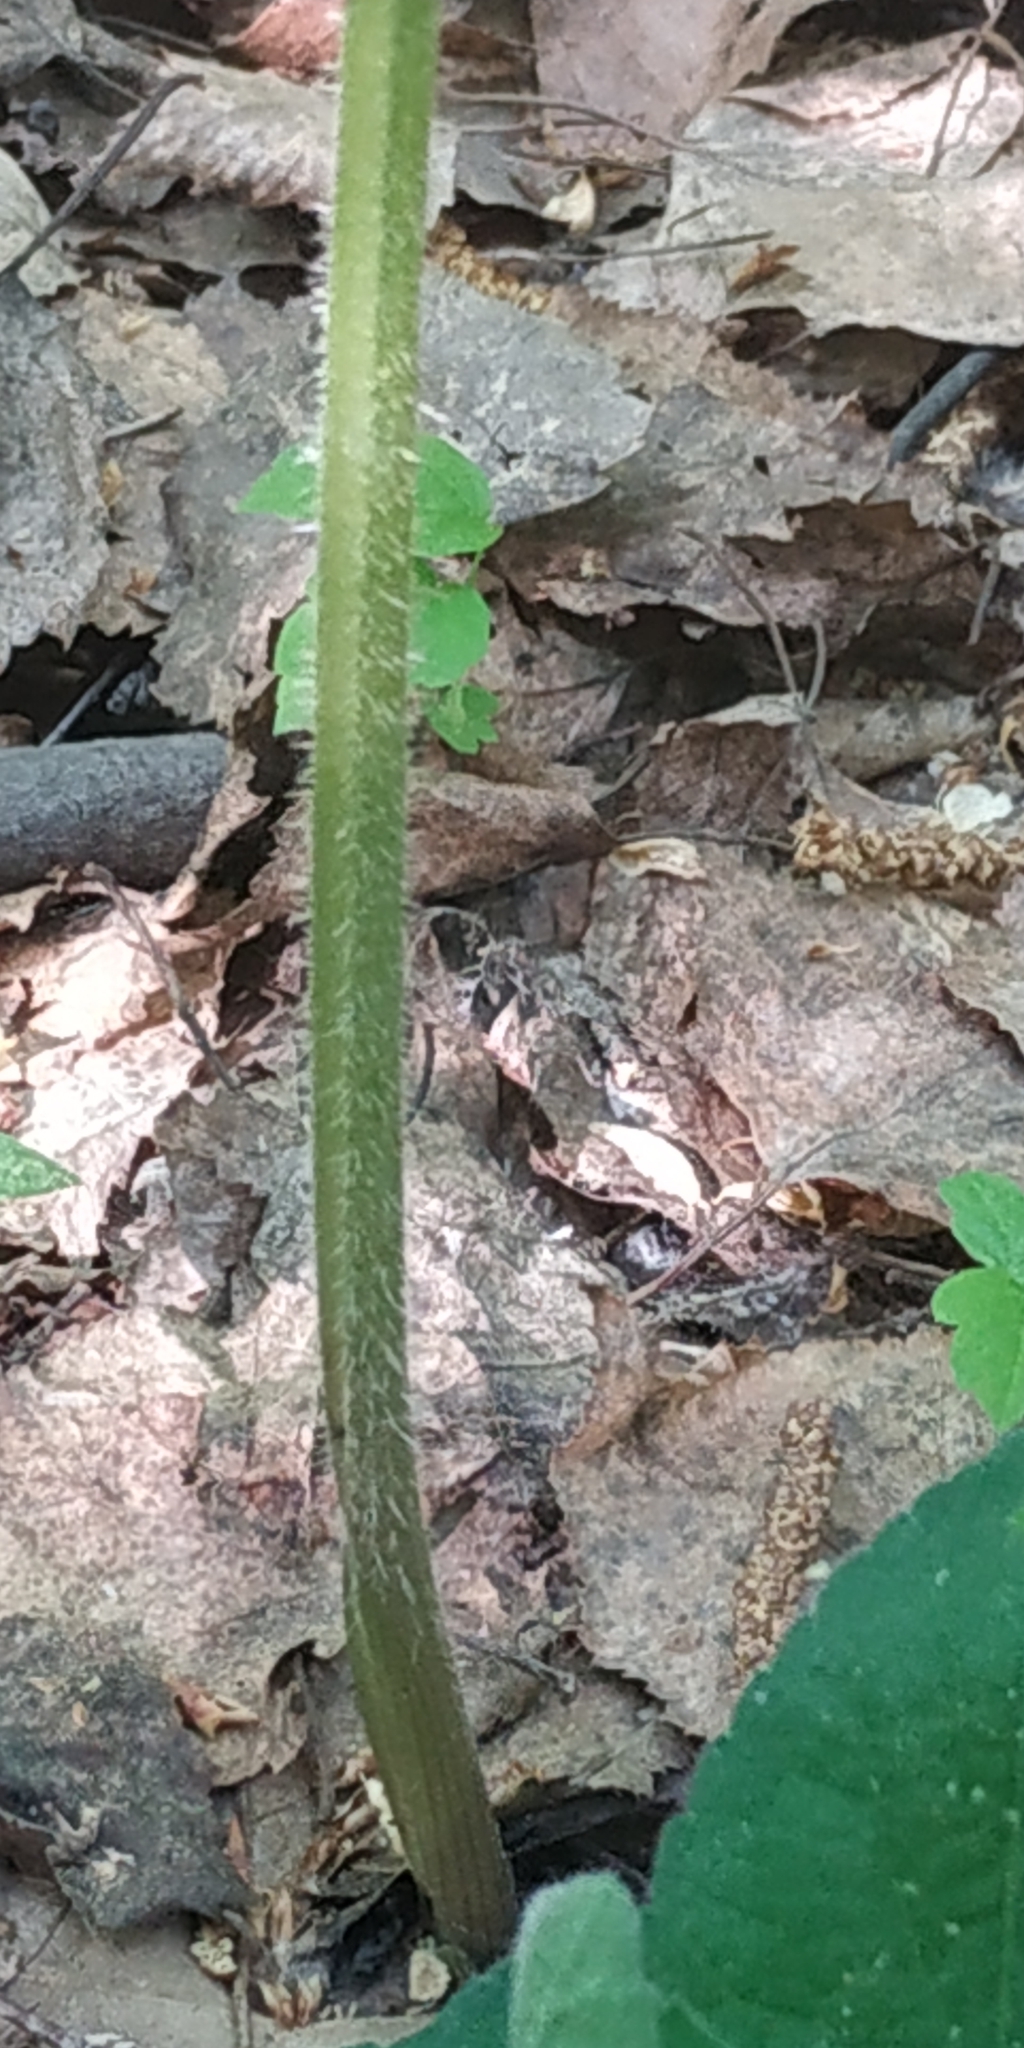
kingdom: Plantae
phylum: Tracheophyta
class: Magnoliopsida
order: Apiales
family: Apiaceae
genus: Heracleum
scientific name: Heracleum sphondylium
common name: Hogweed
